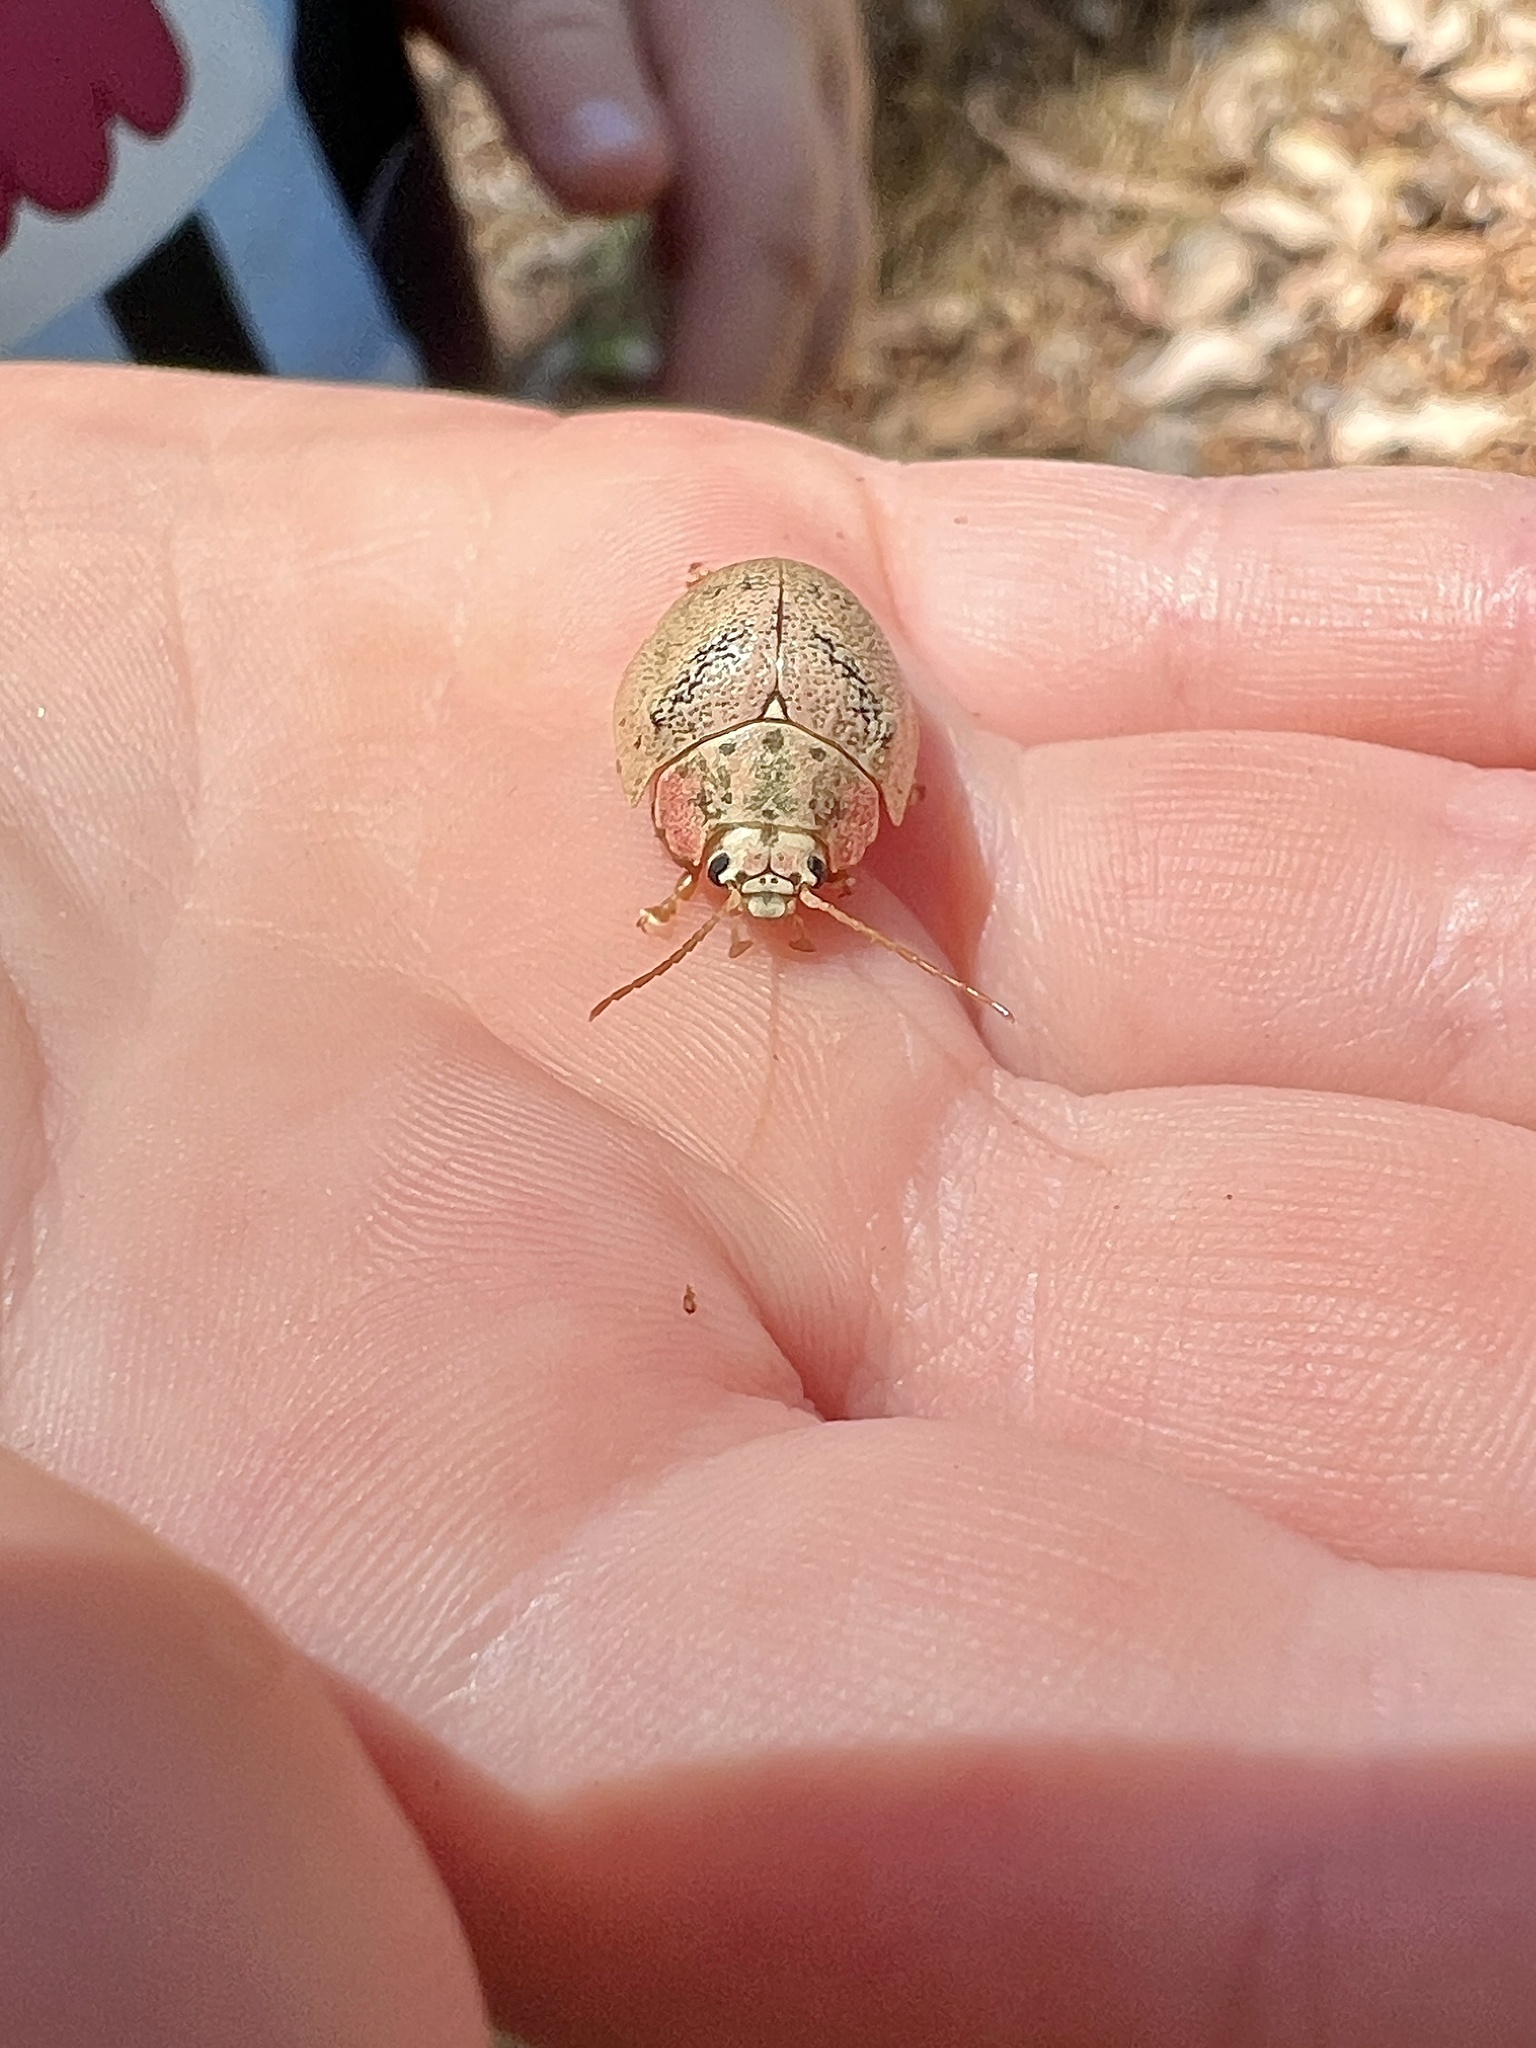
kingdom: Animalia
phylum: Arthropoda
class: Insecta
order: Coleoptera
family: Chrysomelidae
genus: Paropsis
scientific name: Paropsis
